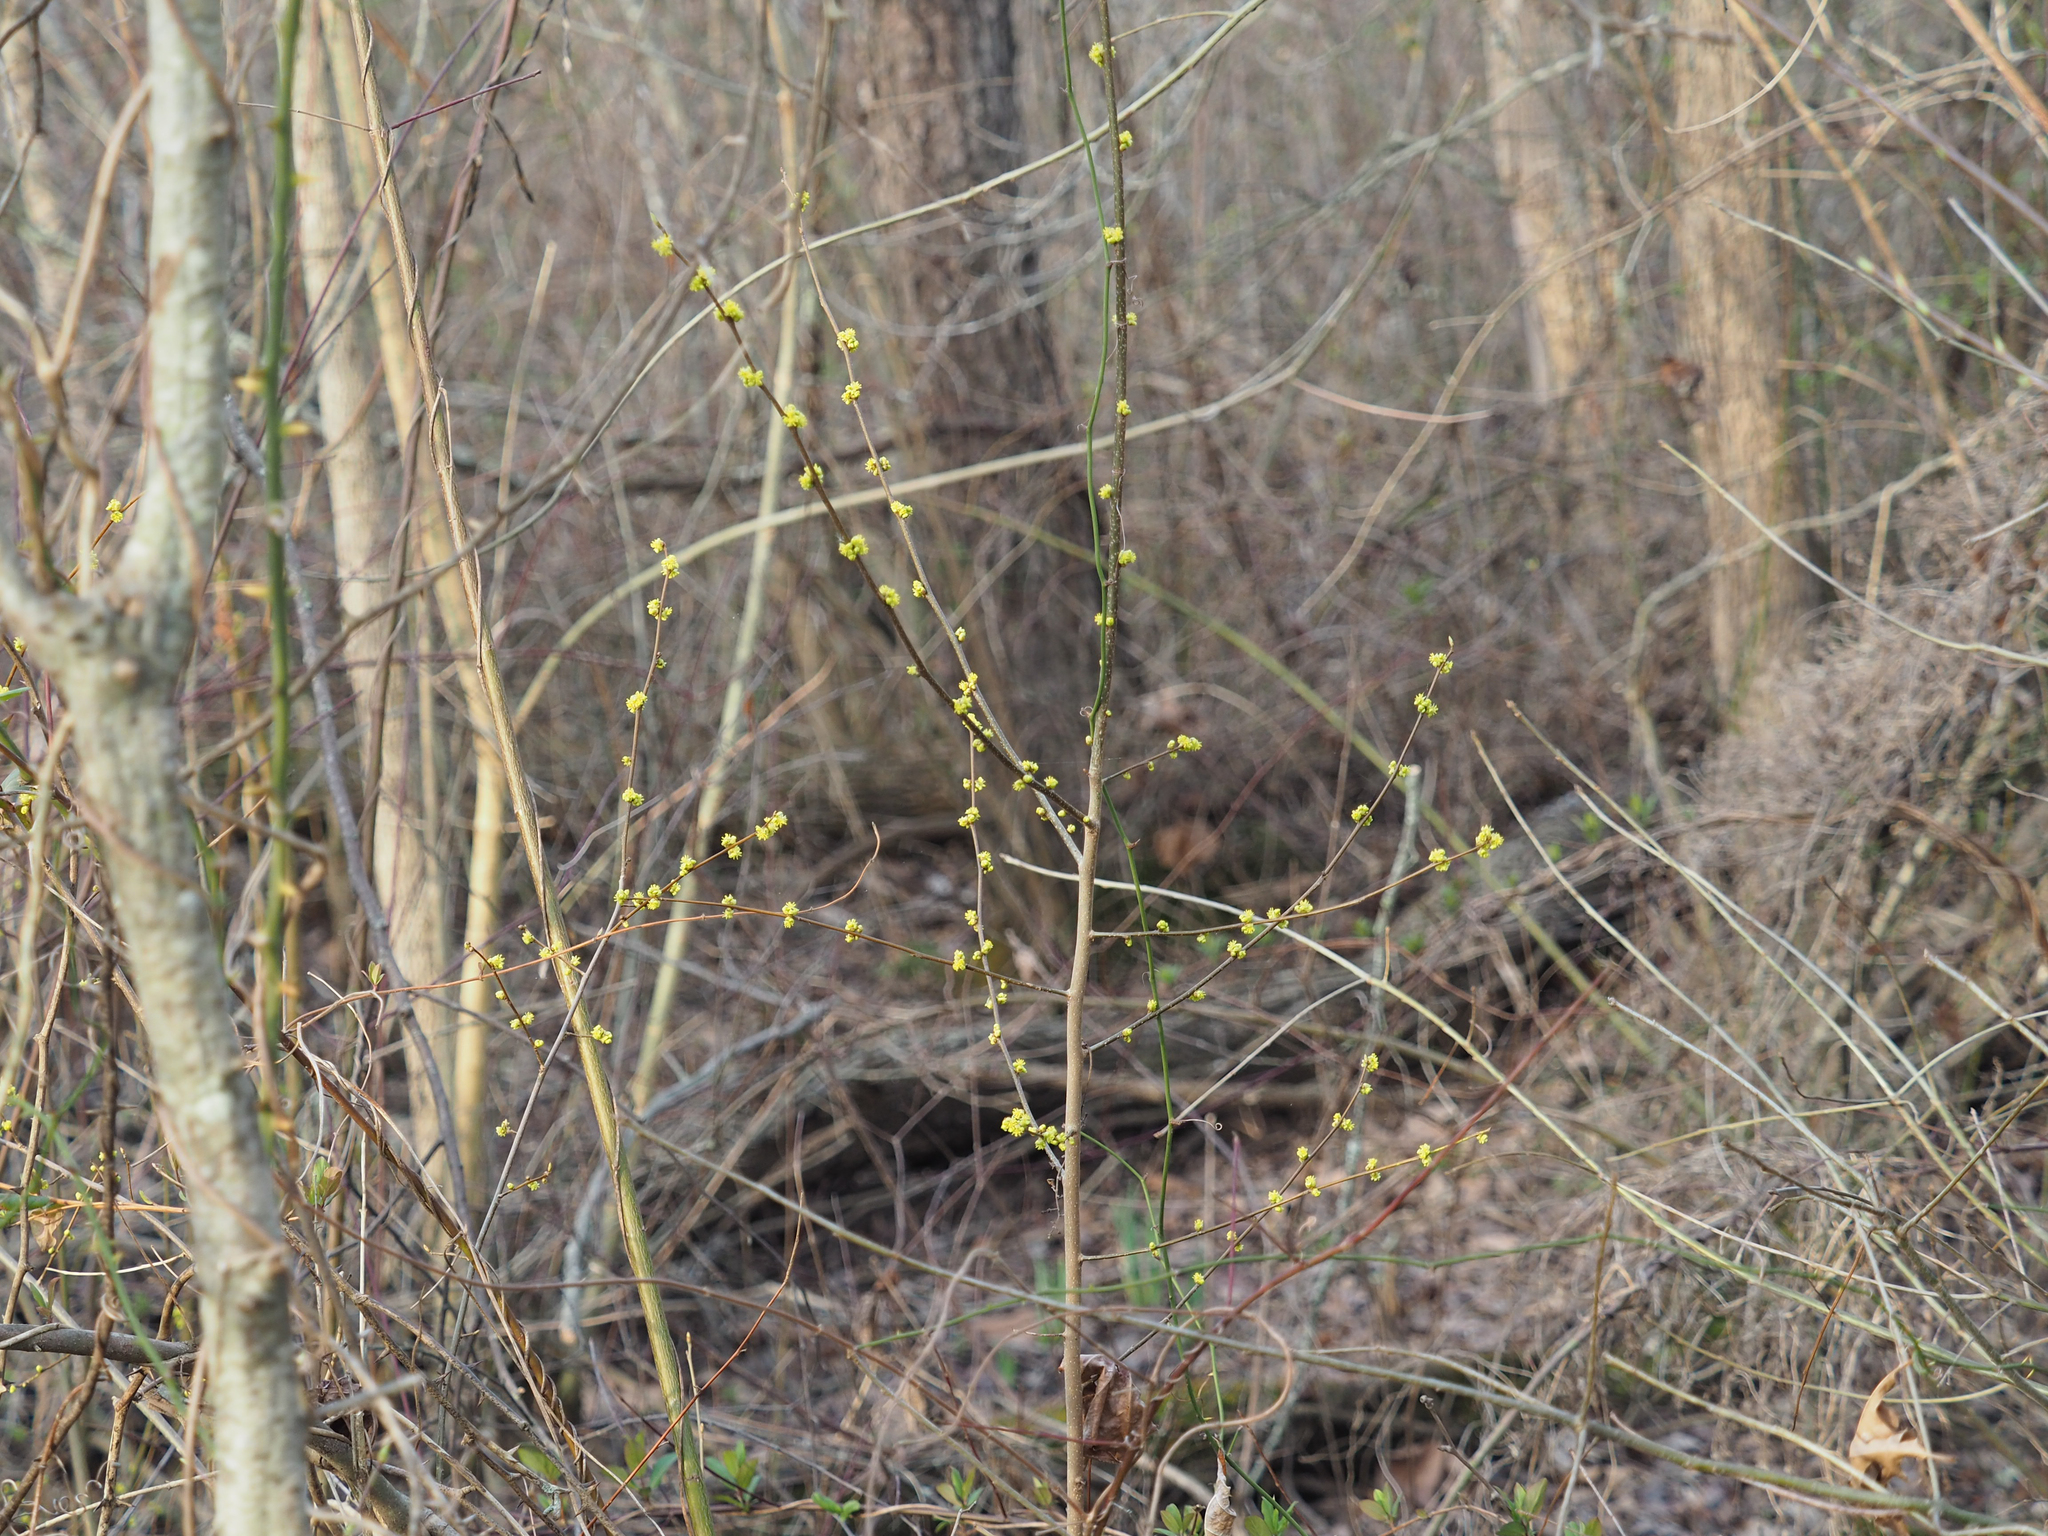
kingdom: Plantae
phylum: Tracheophyta
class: Magnoliopsida
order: Laurales
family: Lauraceae
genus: Lindera
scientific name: Lindera benzoin
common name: Spicebush
